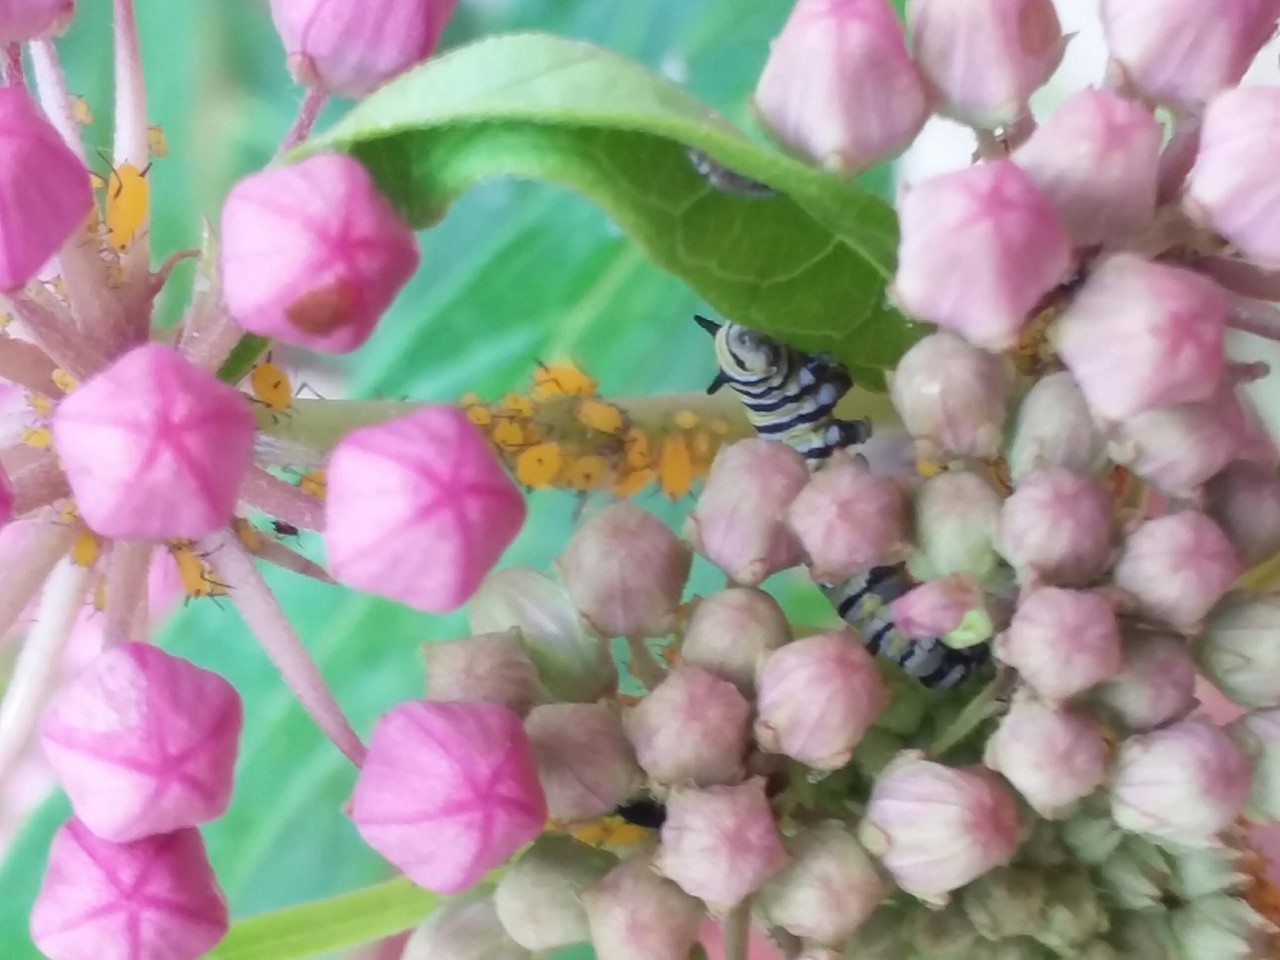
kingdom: Animalia
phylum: Arthropoda
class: Insecta
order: Lepidoptera
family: Nymphalidae
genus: Danaus
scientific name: Danaus plexippus
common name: Monarch
